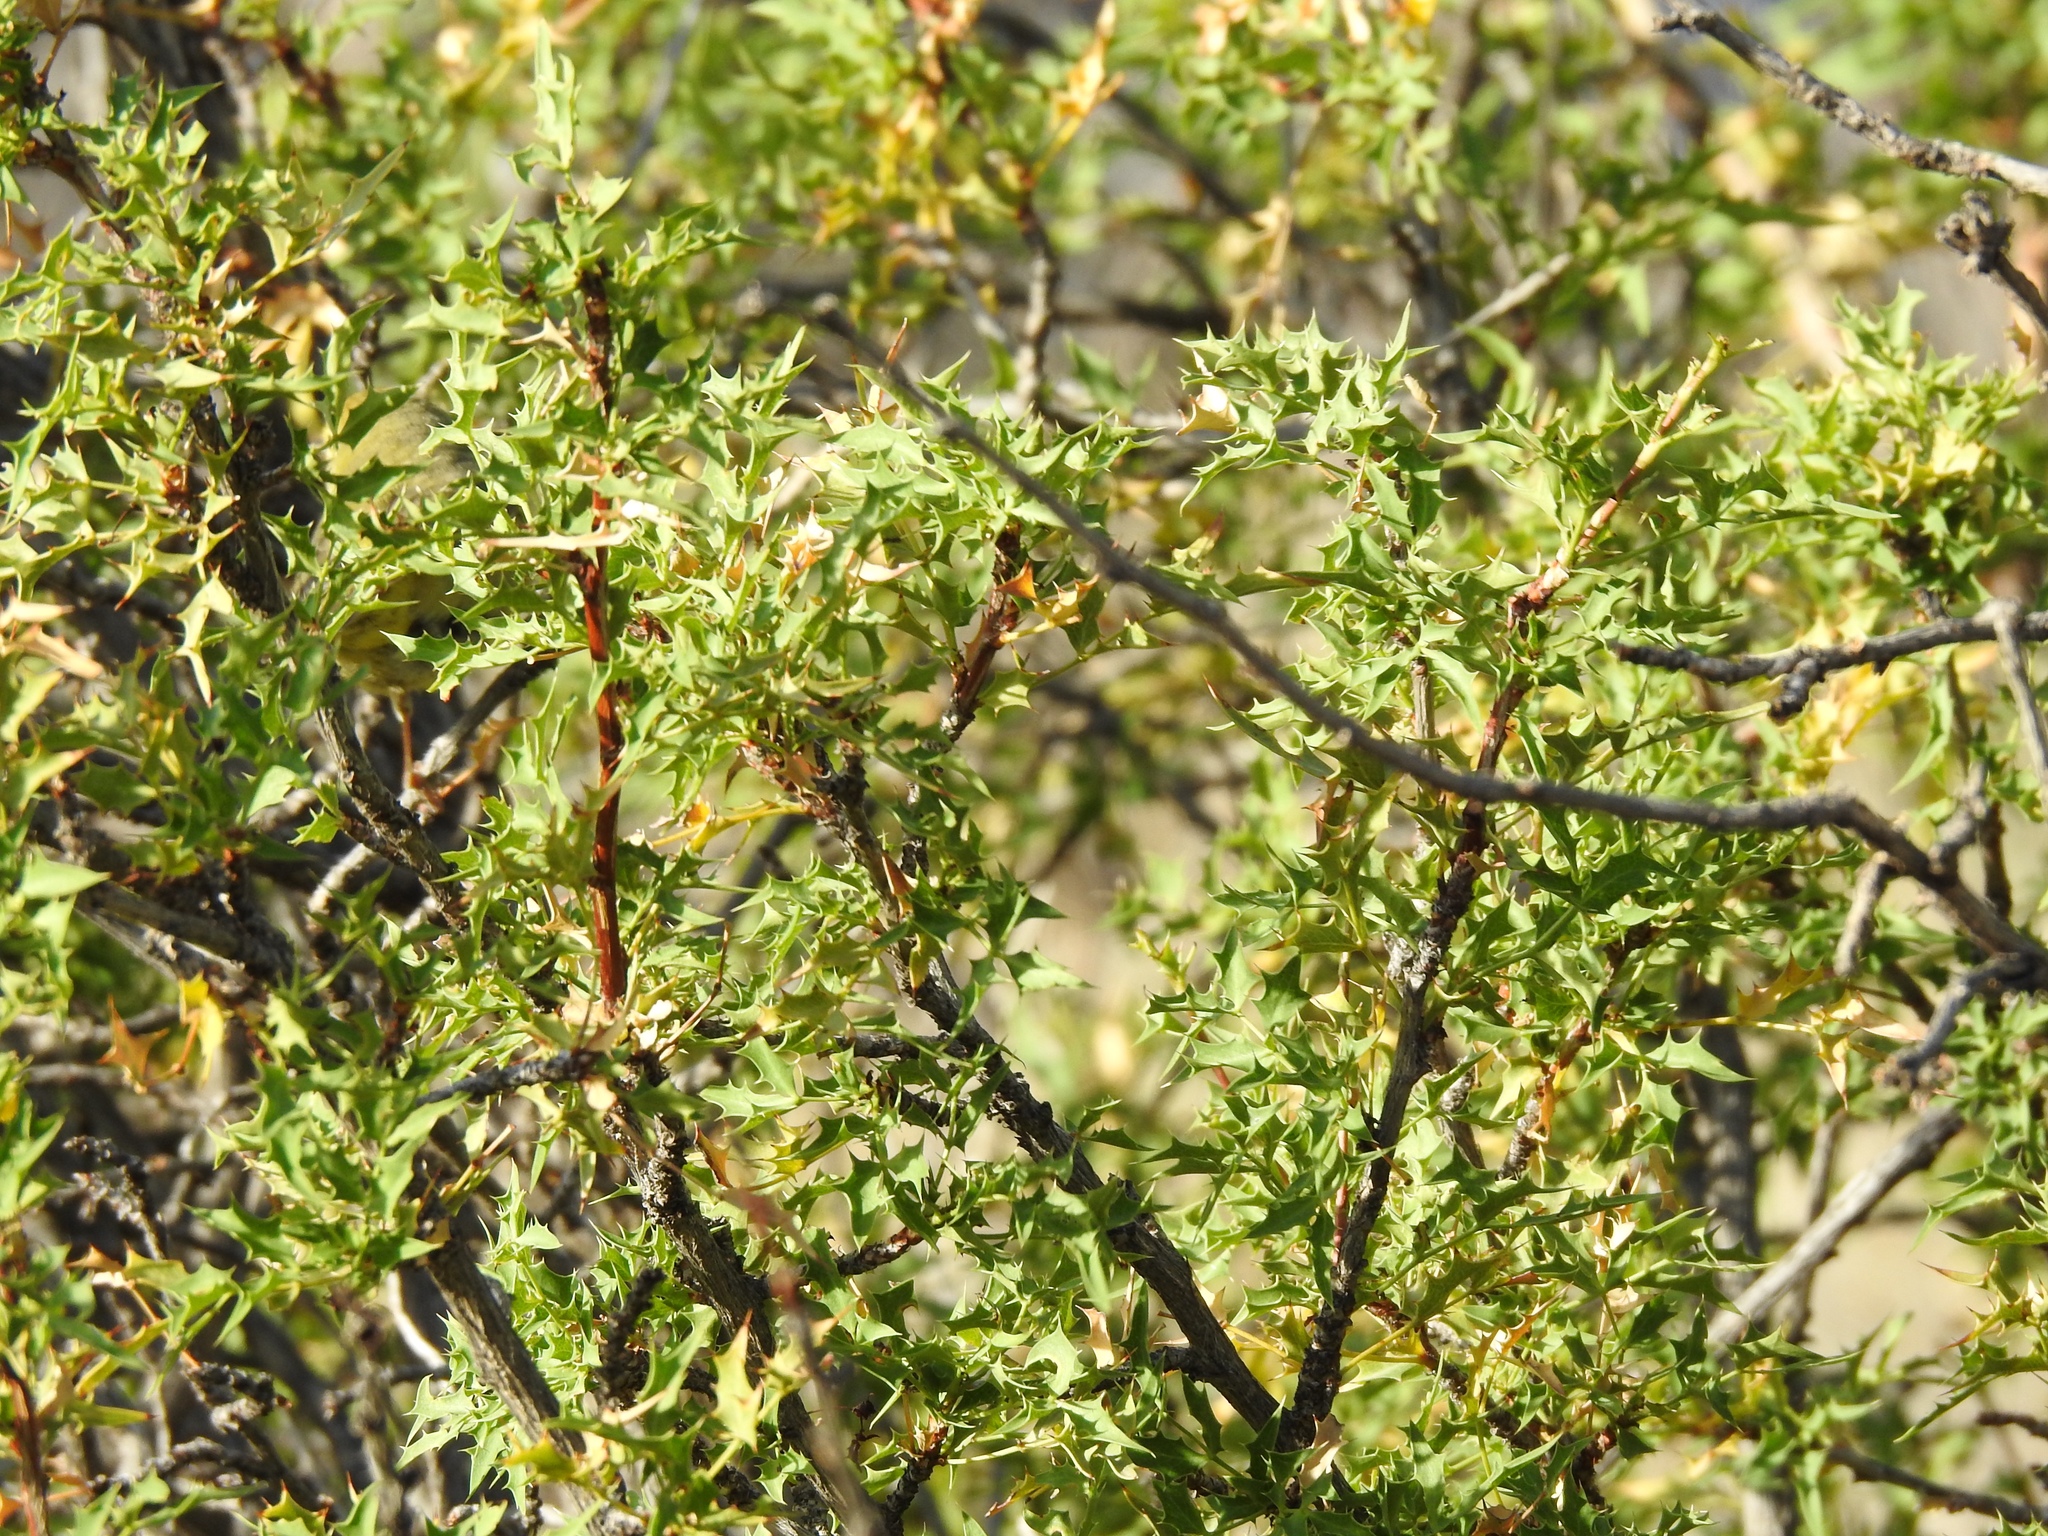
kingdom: Plantae
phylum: Tracheophyta
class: Magnoliopsida
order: Ranunculales
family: Berberidaceae
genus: Alloberberis
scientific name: Alloberberis haematocarpa
